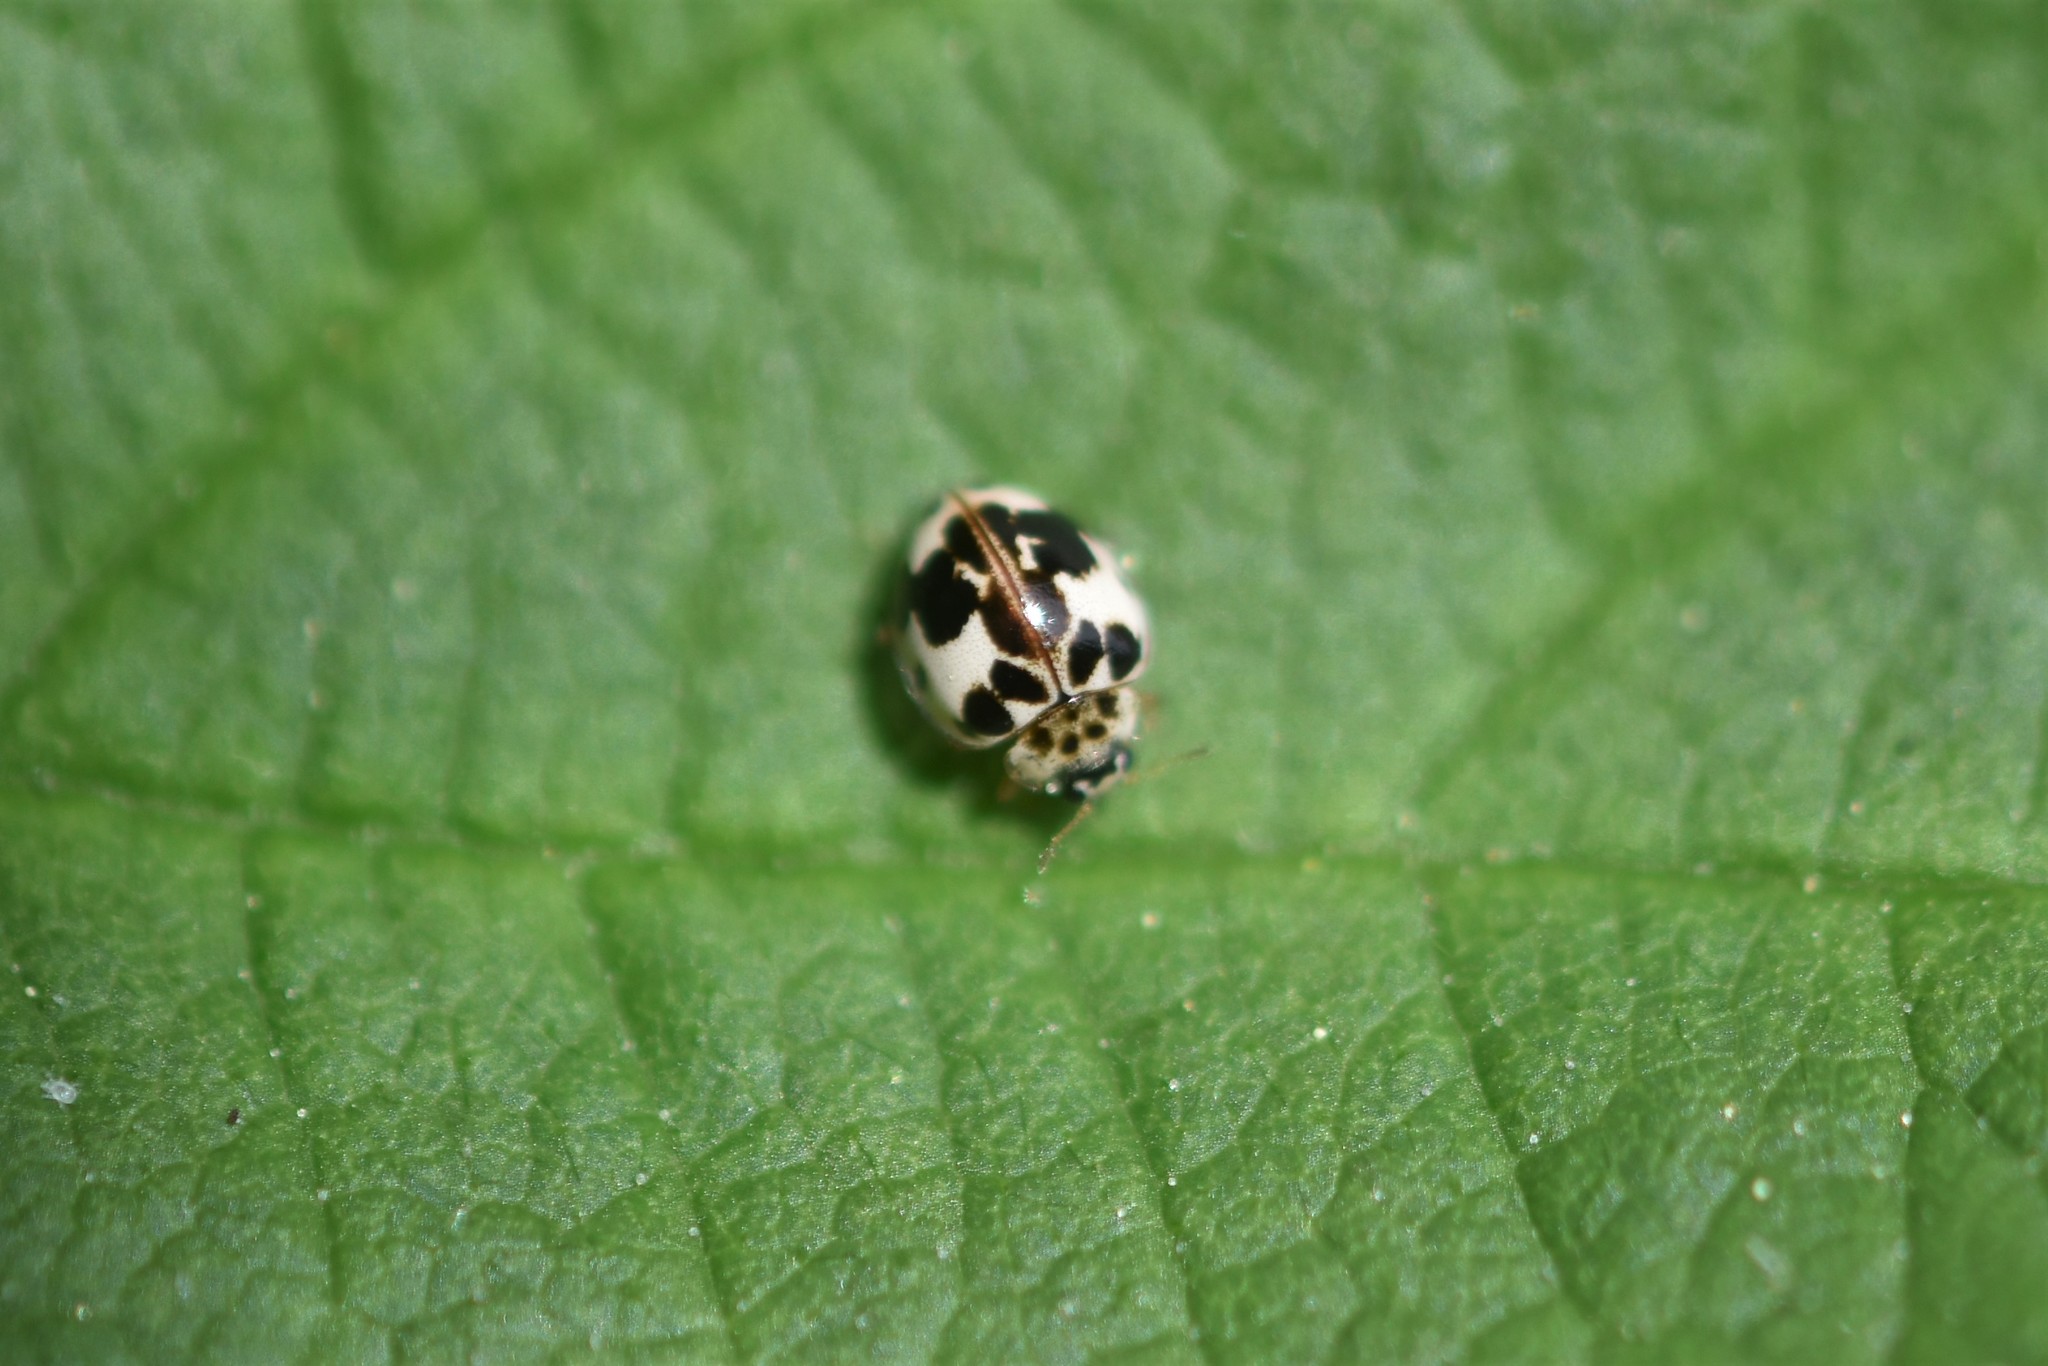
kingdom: Animalia
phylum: Arthropoda
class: Insecta
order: Coleoptera
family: Coccinellidae
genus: Psyllobora
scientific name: Psyllobora borealis
